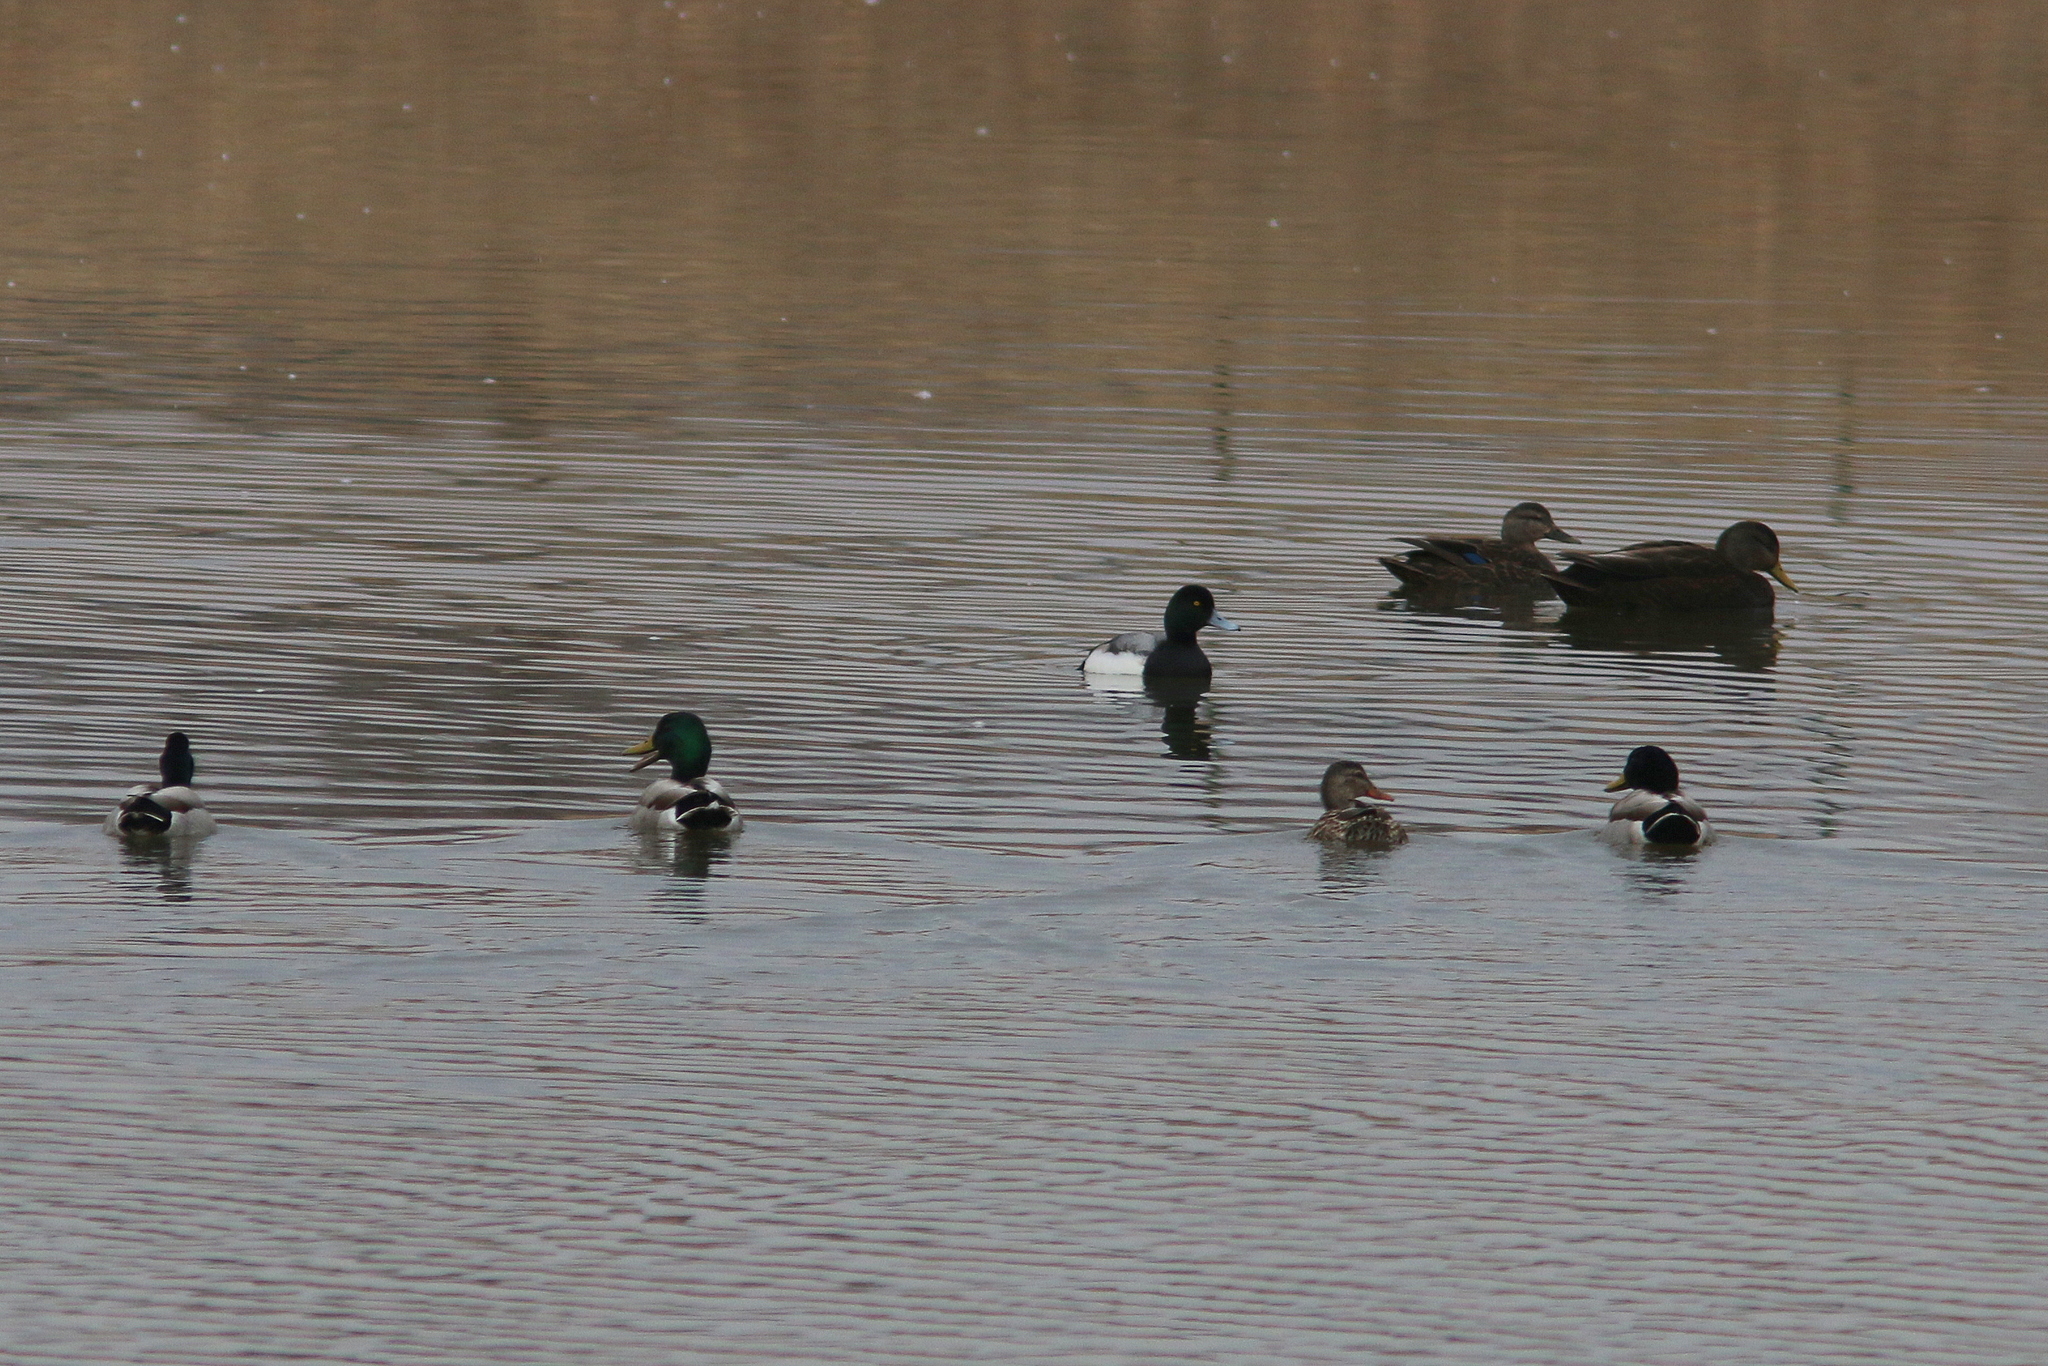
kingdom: Animalia
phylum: Chordata
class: Aves
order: Anseriformes
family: Anatidae
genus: Anas
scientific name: Anas platyrhynchos
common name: Mallard
